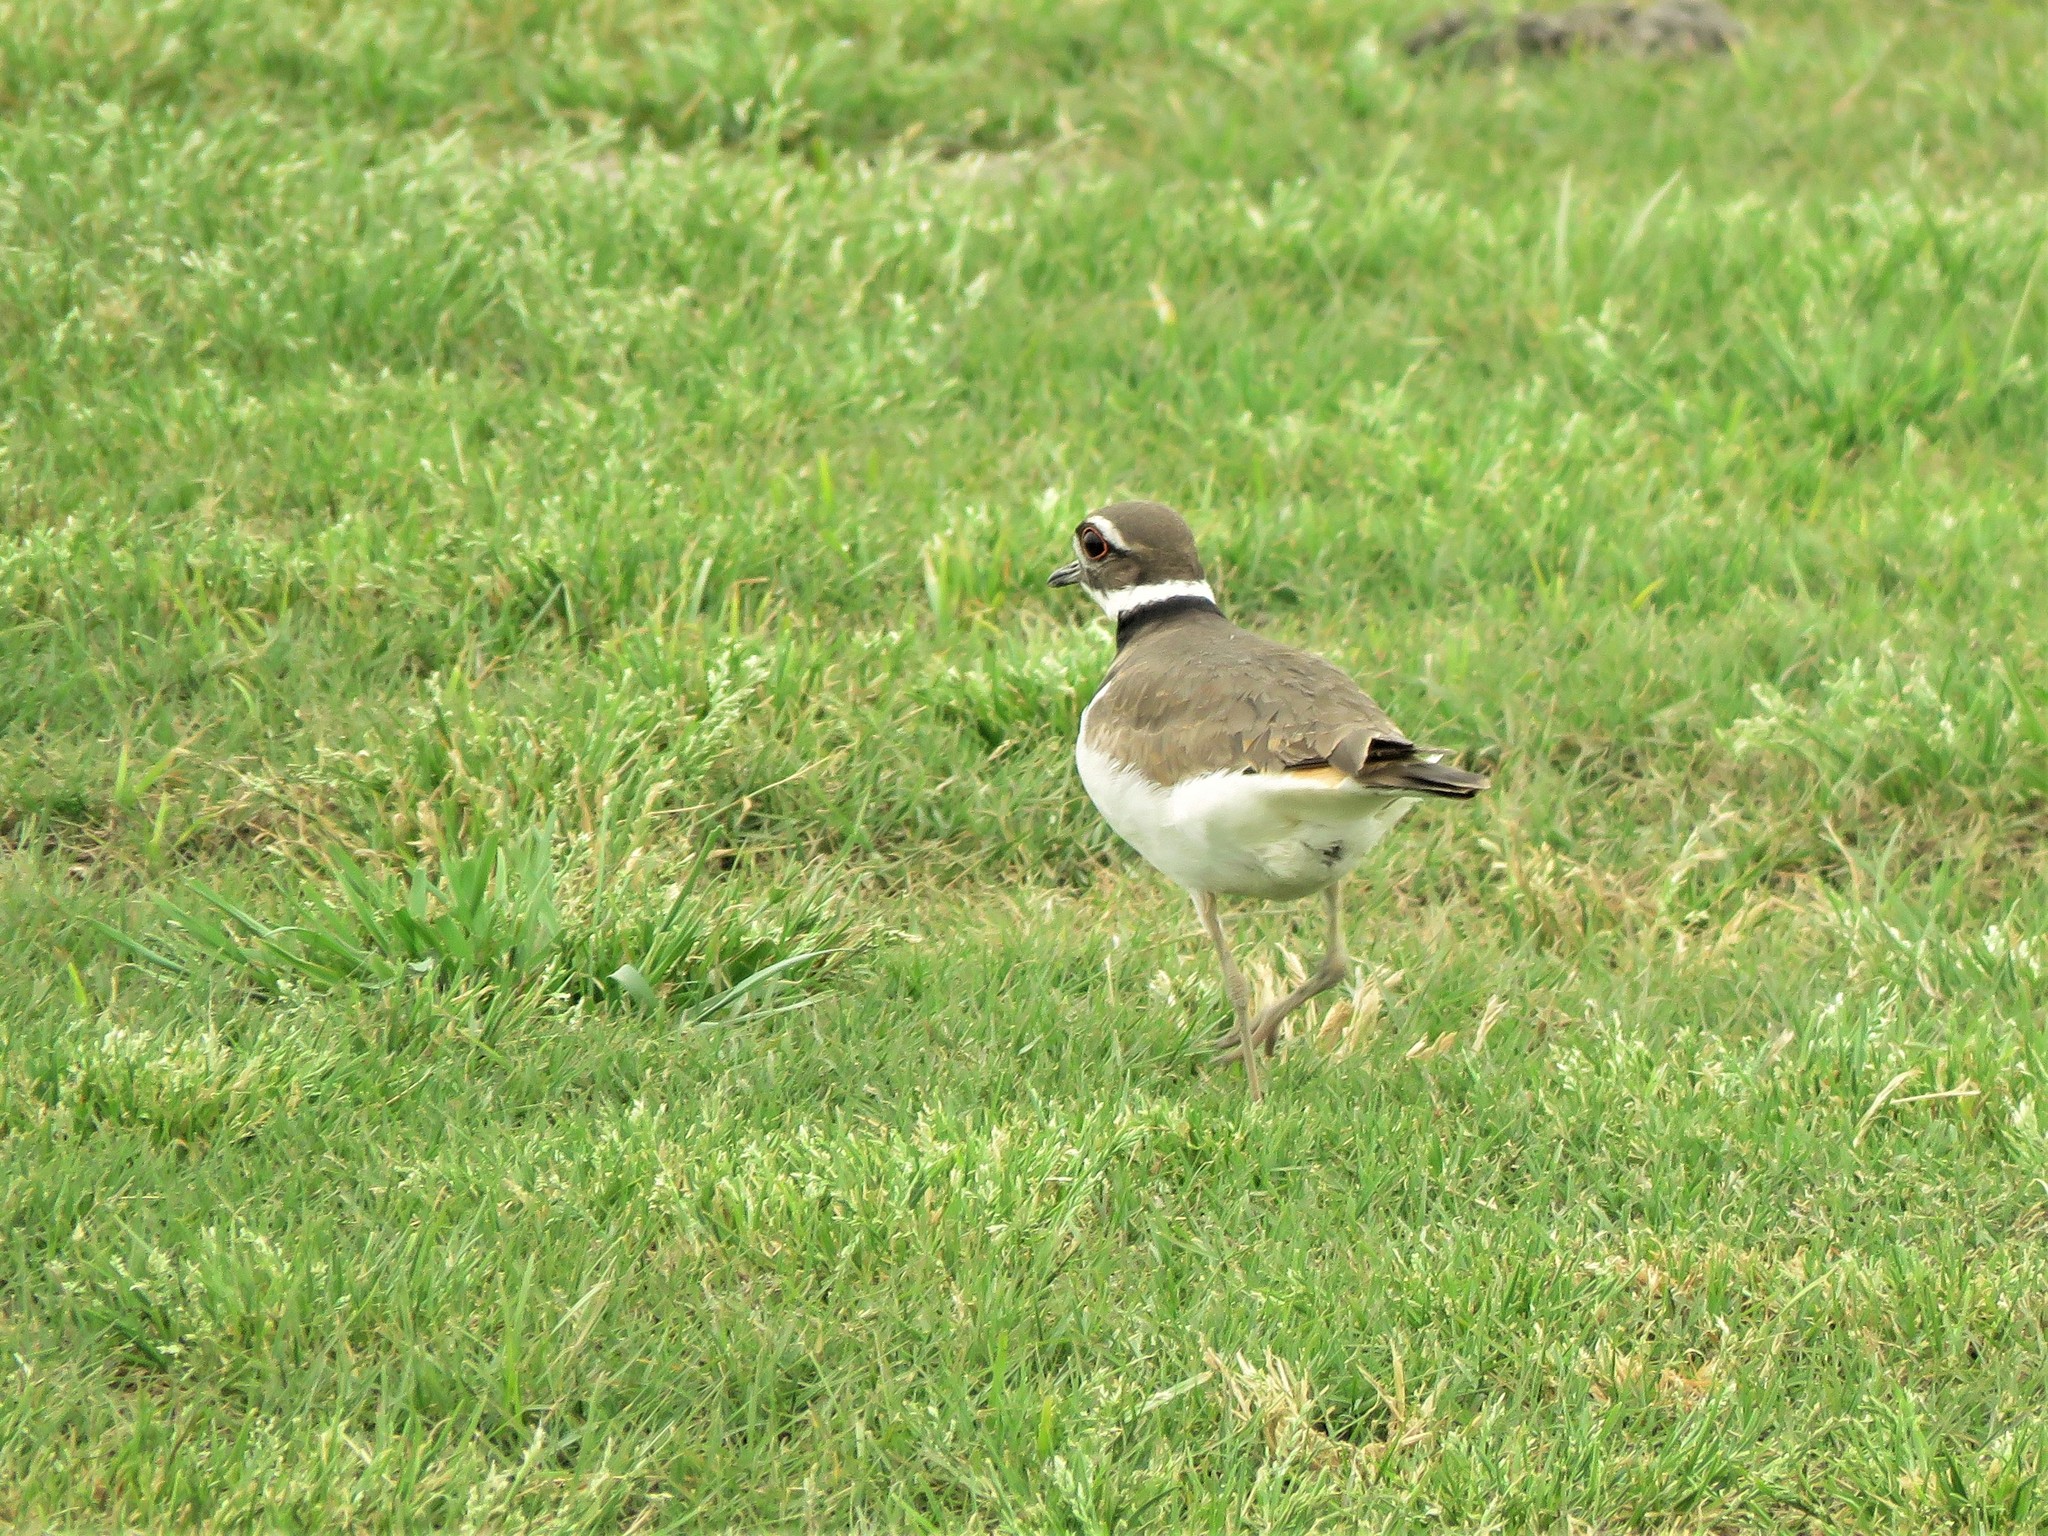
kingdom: Animalia
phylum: Chordata
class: Aves
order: Charadriiformes
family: Charadriidae
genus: Charadrius
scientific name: Charadrius vociferus
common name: Killdeer
